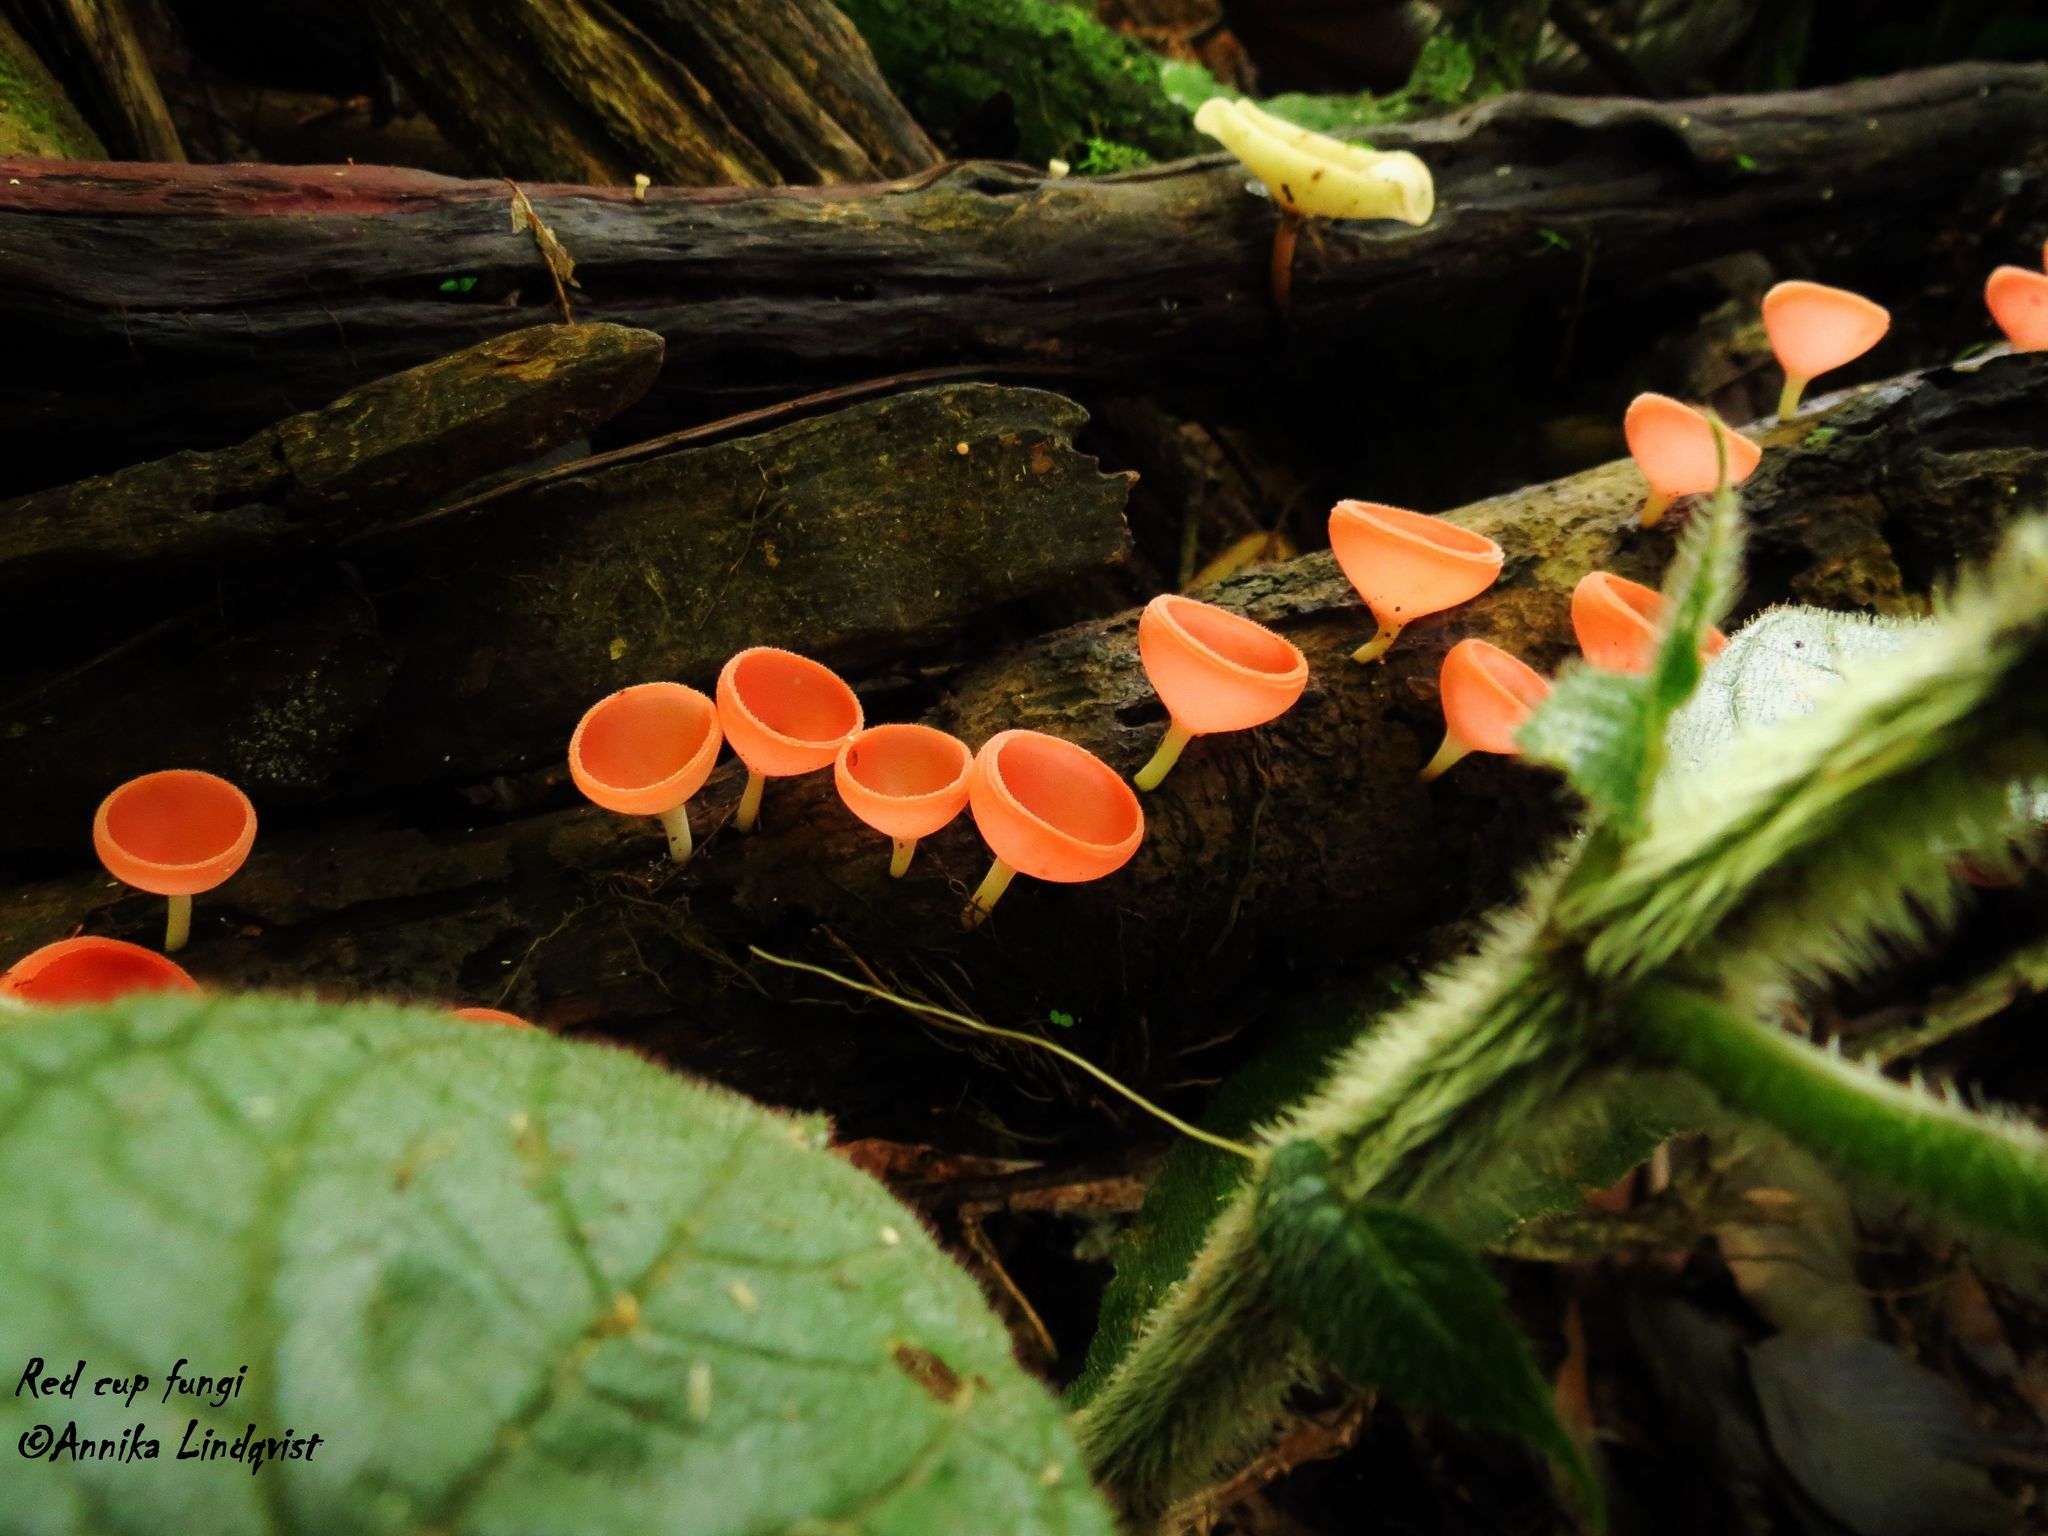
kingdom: Fungi
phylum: Ascomycota
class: Pezizomycetes
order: Pezizales
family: Sarcoscyphaceae
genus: Cookeina
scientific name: Cookeina speciosa
